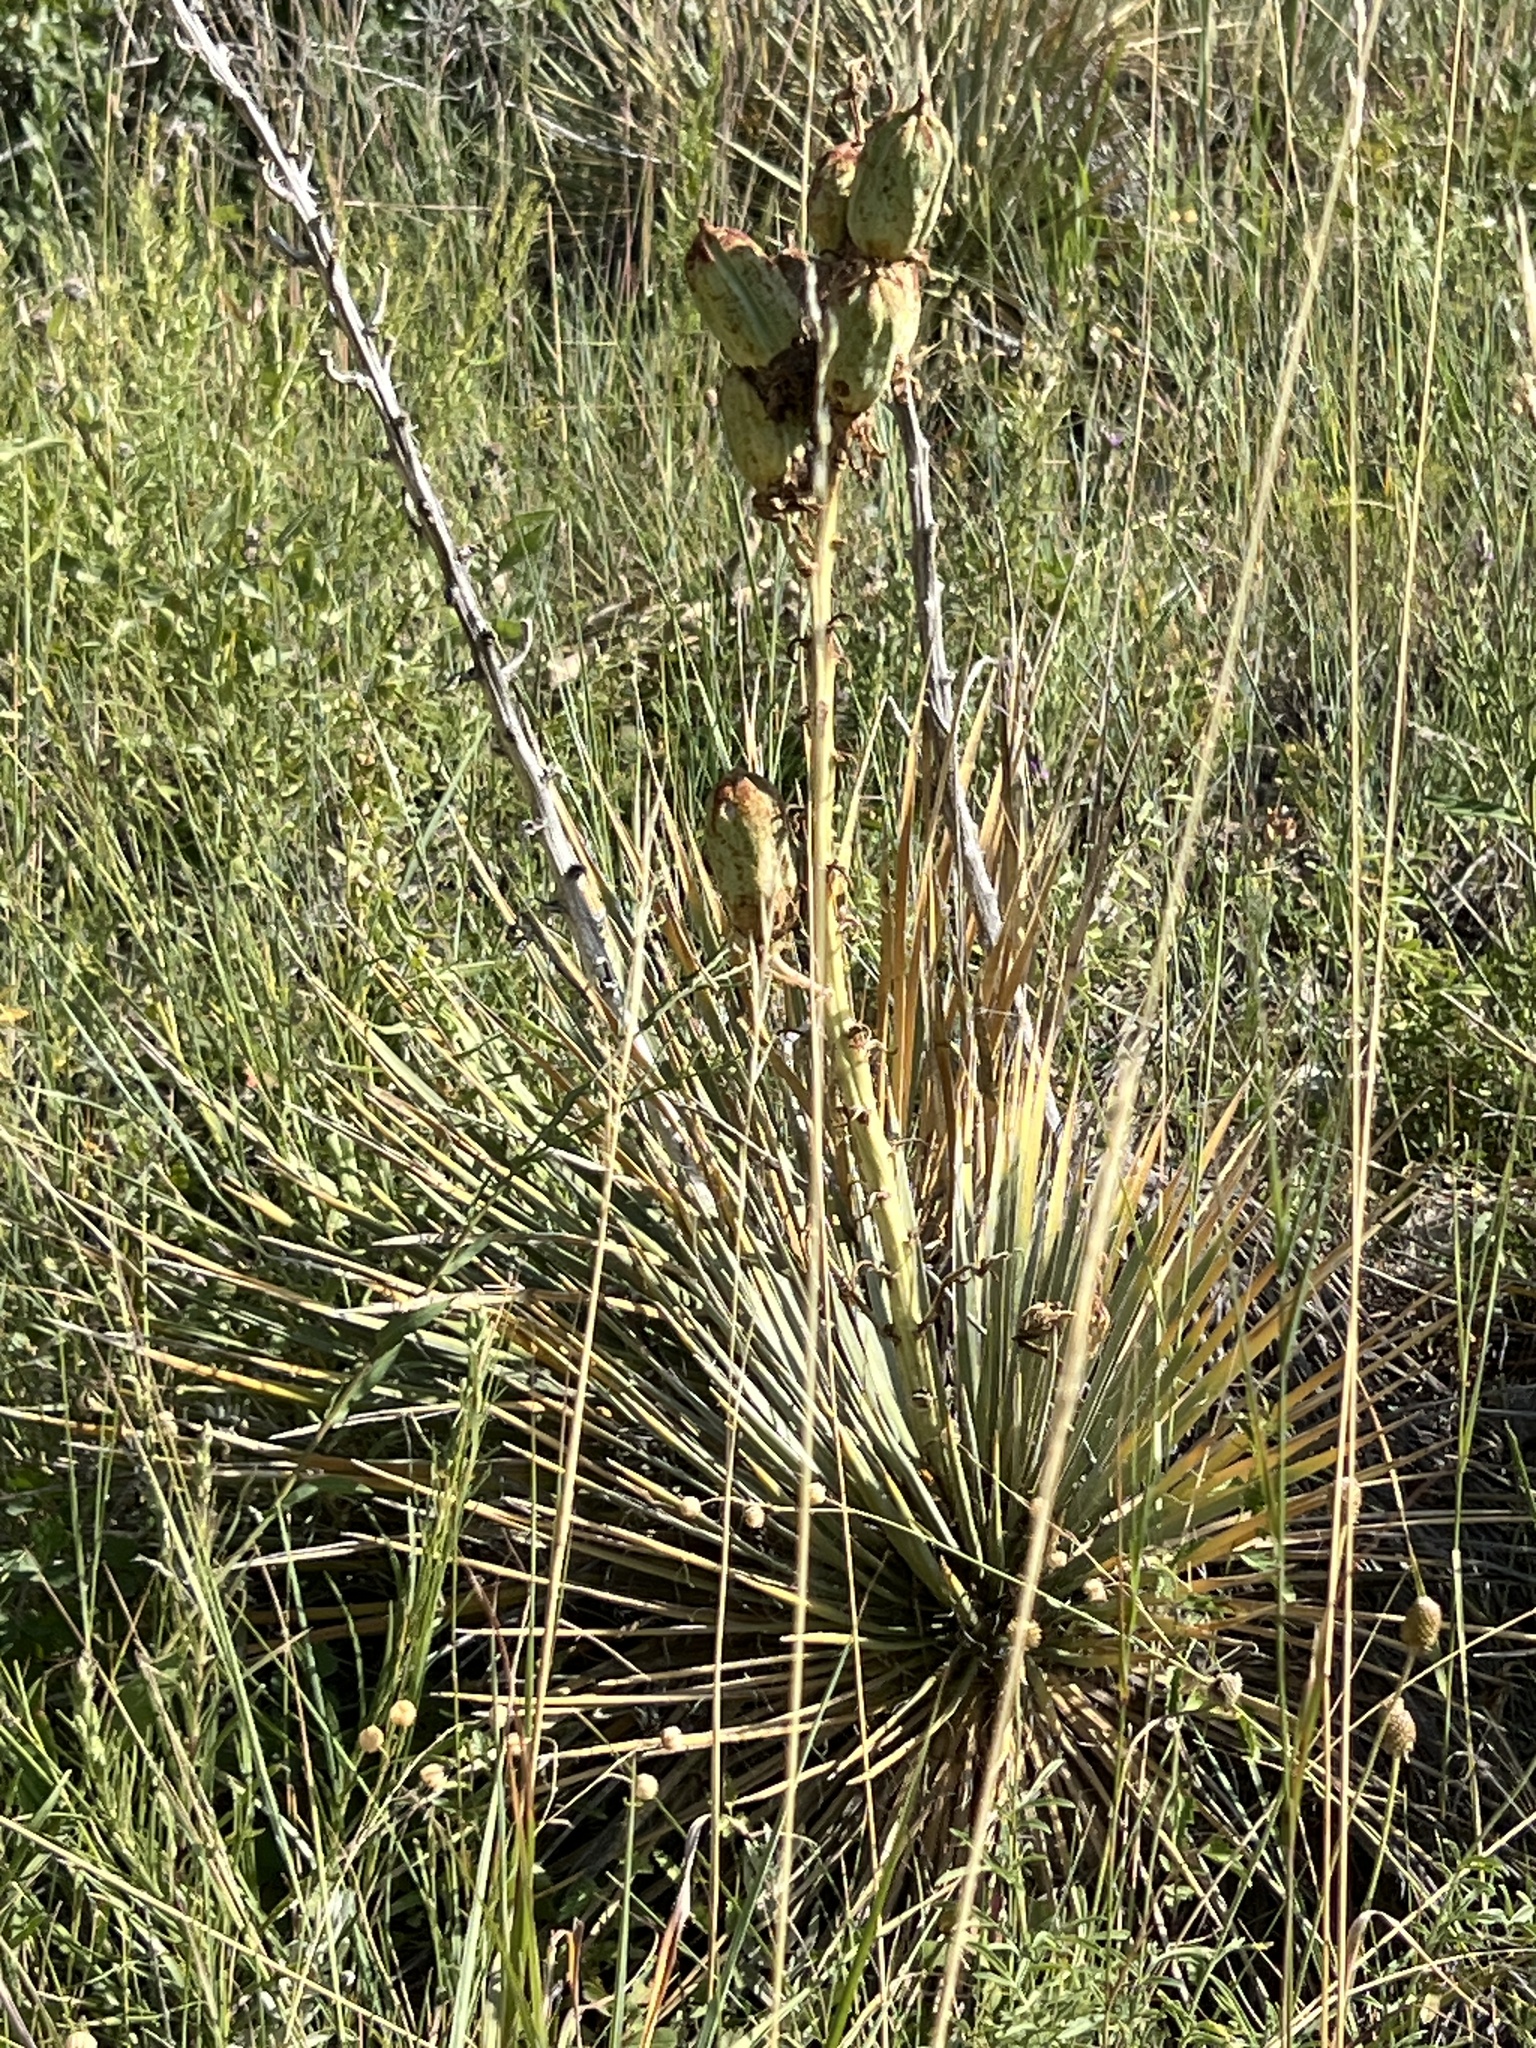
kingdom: Plantae
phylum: Tracheophyta
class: Liliopsida
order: Asparagales
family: Asparagaceae
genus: Yucca
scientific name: Yucca glauca
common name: Great plains yucca
